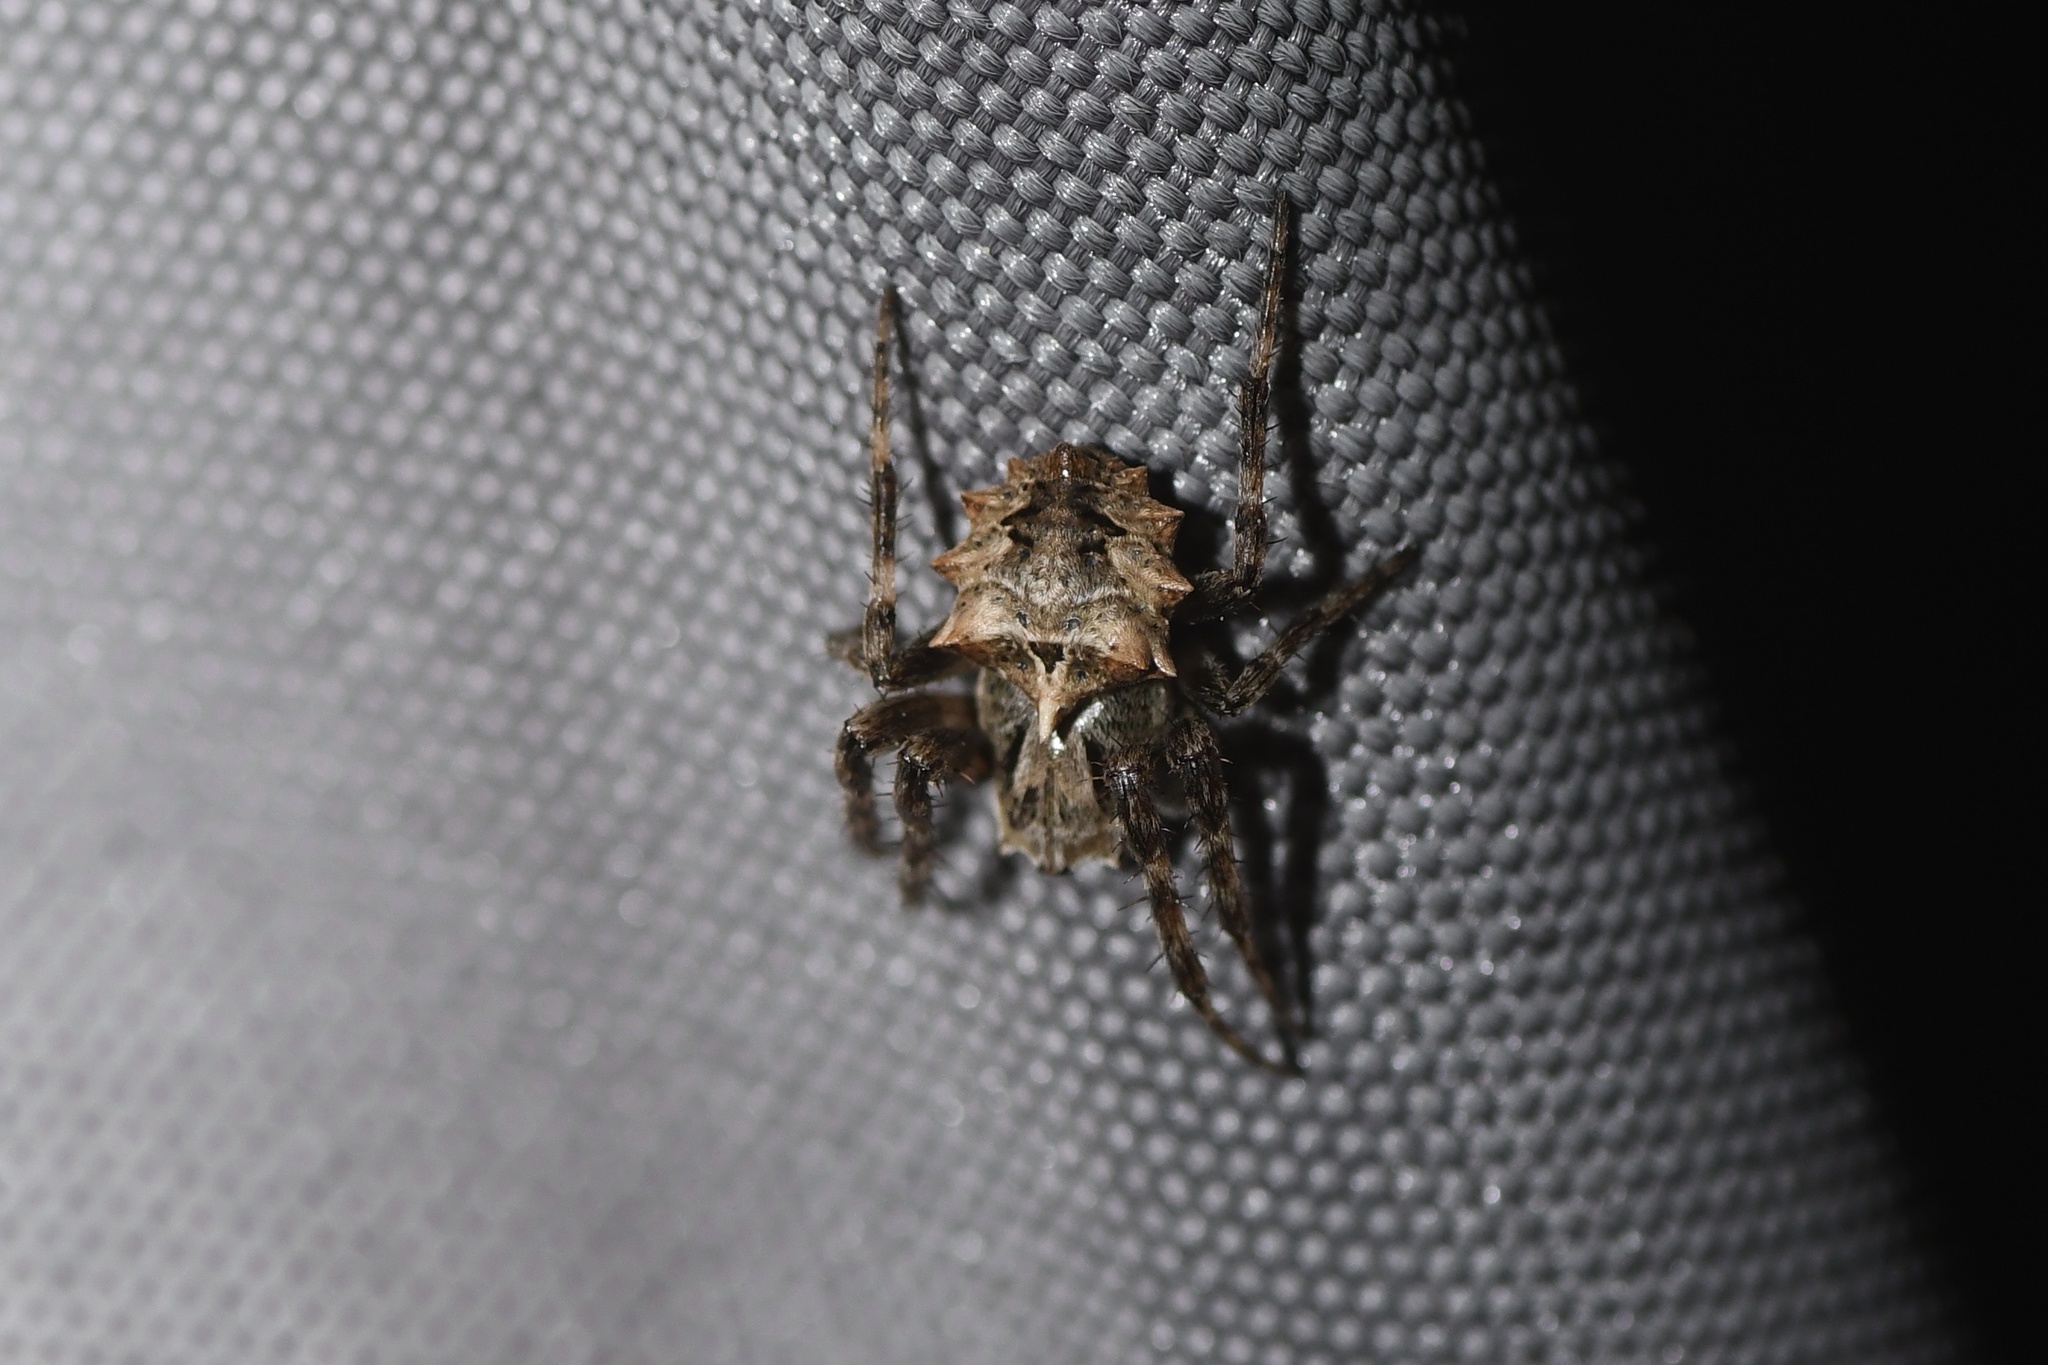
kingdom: Animalia
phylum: Arthropoda
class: Arachnida
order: Araneae
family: Araneidae
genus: Acanthepeira
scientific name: Acanthepeira stellata
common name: Starbellied orbweaver
